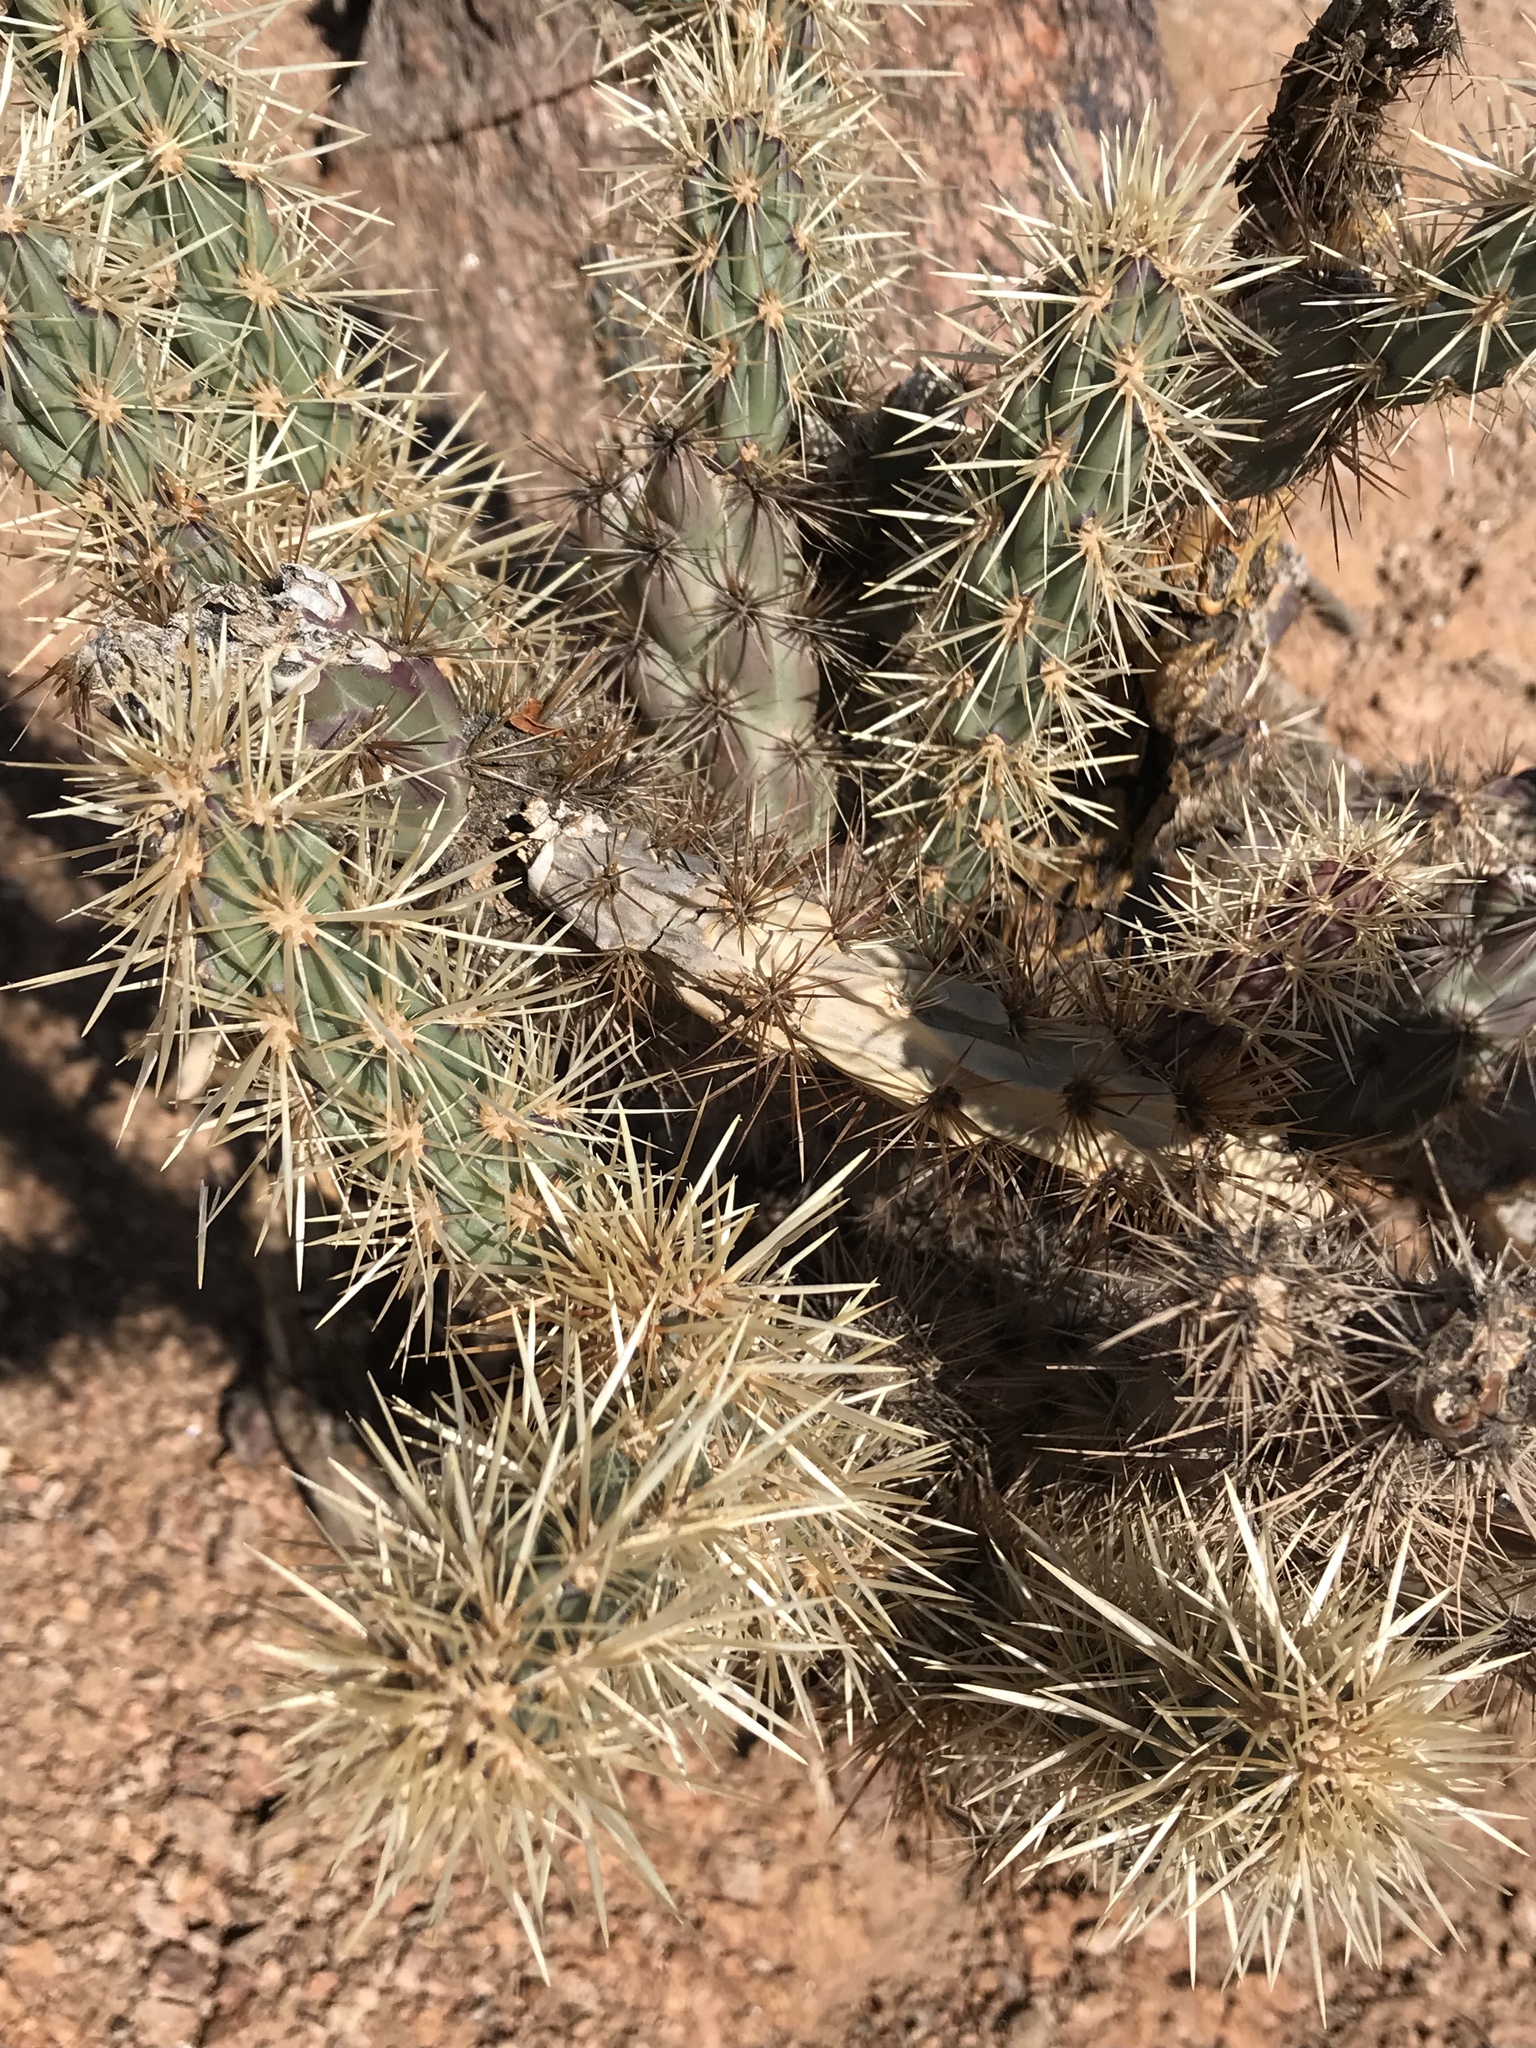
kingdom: Plantae
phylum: Tracheophyta
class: Magnoliopsida
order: Caryophyllales
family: Cactaceae
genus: Cylindropuntia
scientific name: Cylindropuntia acanthocarpa
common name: Buckhorn cholla
